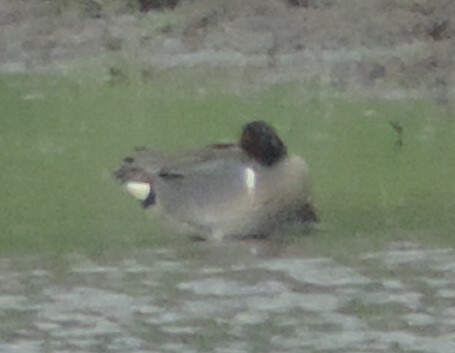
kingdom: Animalia
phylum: Chordata
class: Aves
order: Anseriformes
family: Anatidae
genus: Anas
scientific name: Anas carolinensis
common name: Green-winged teal
